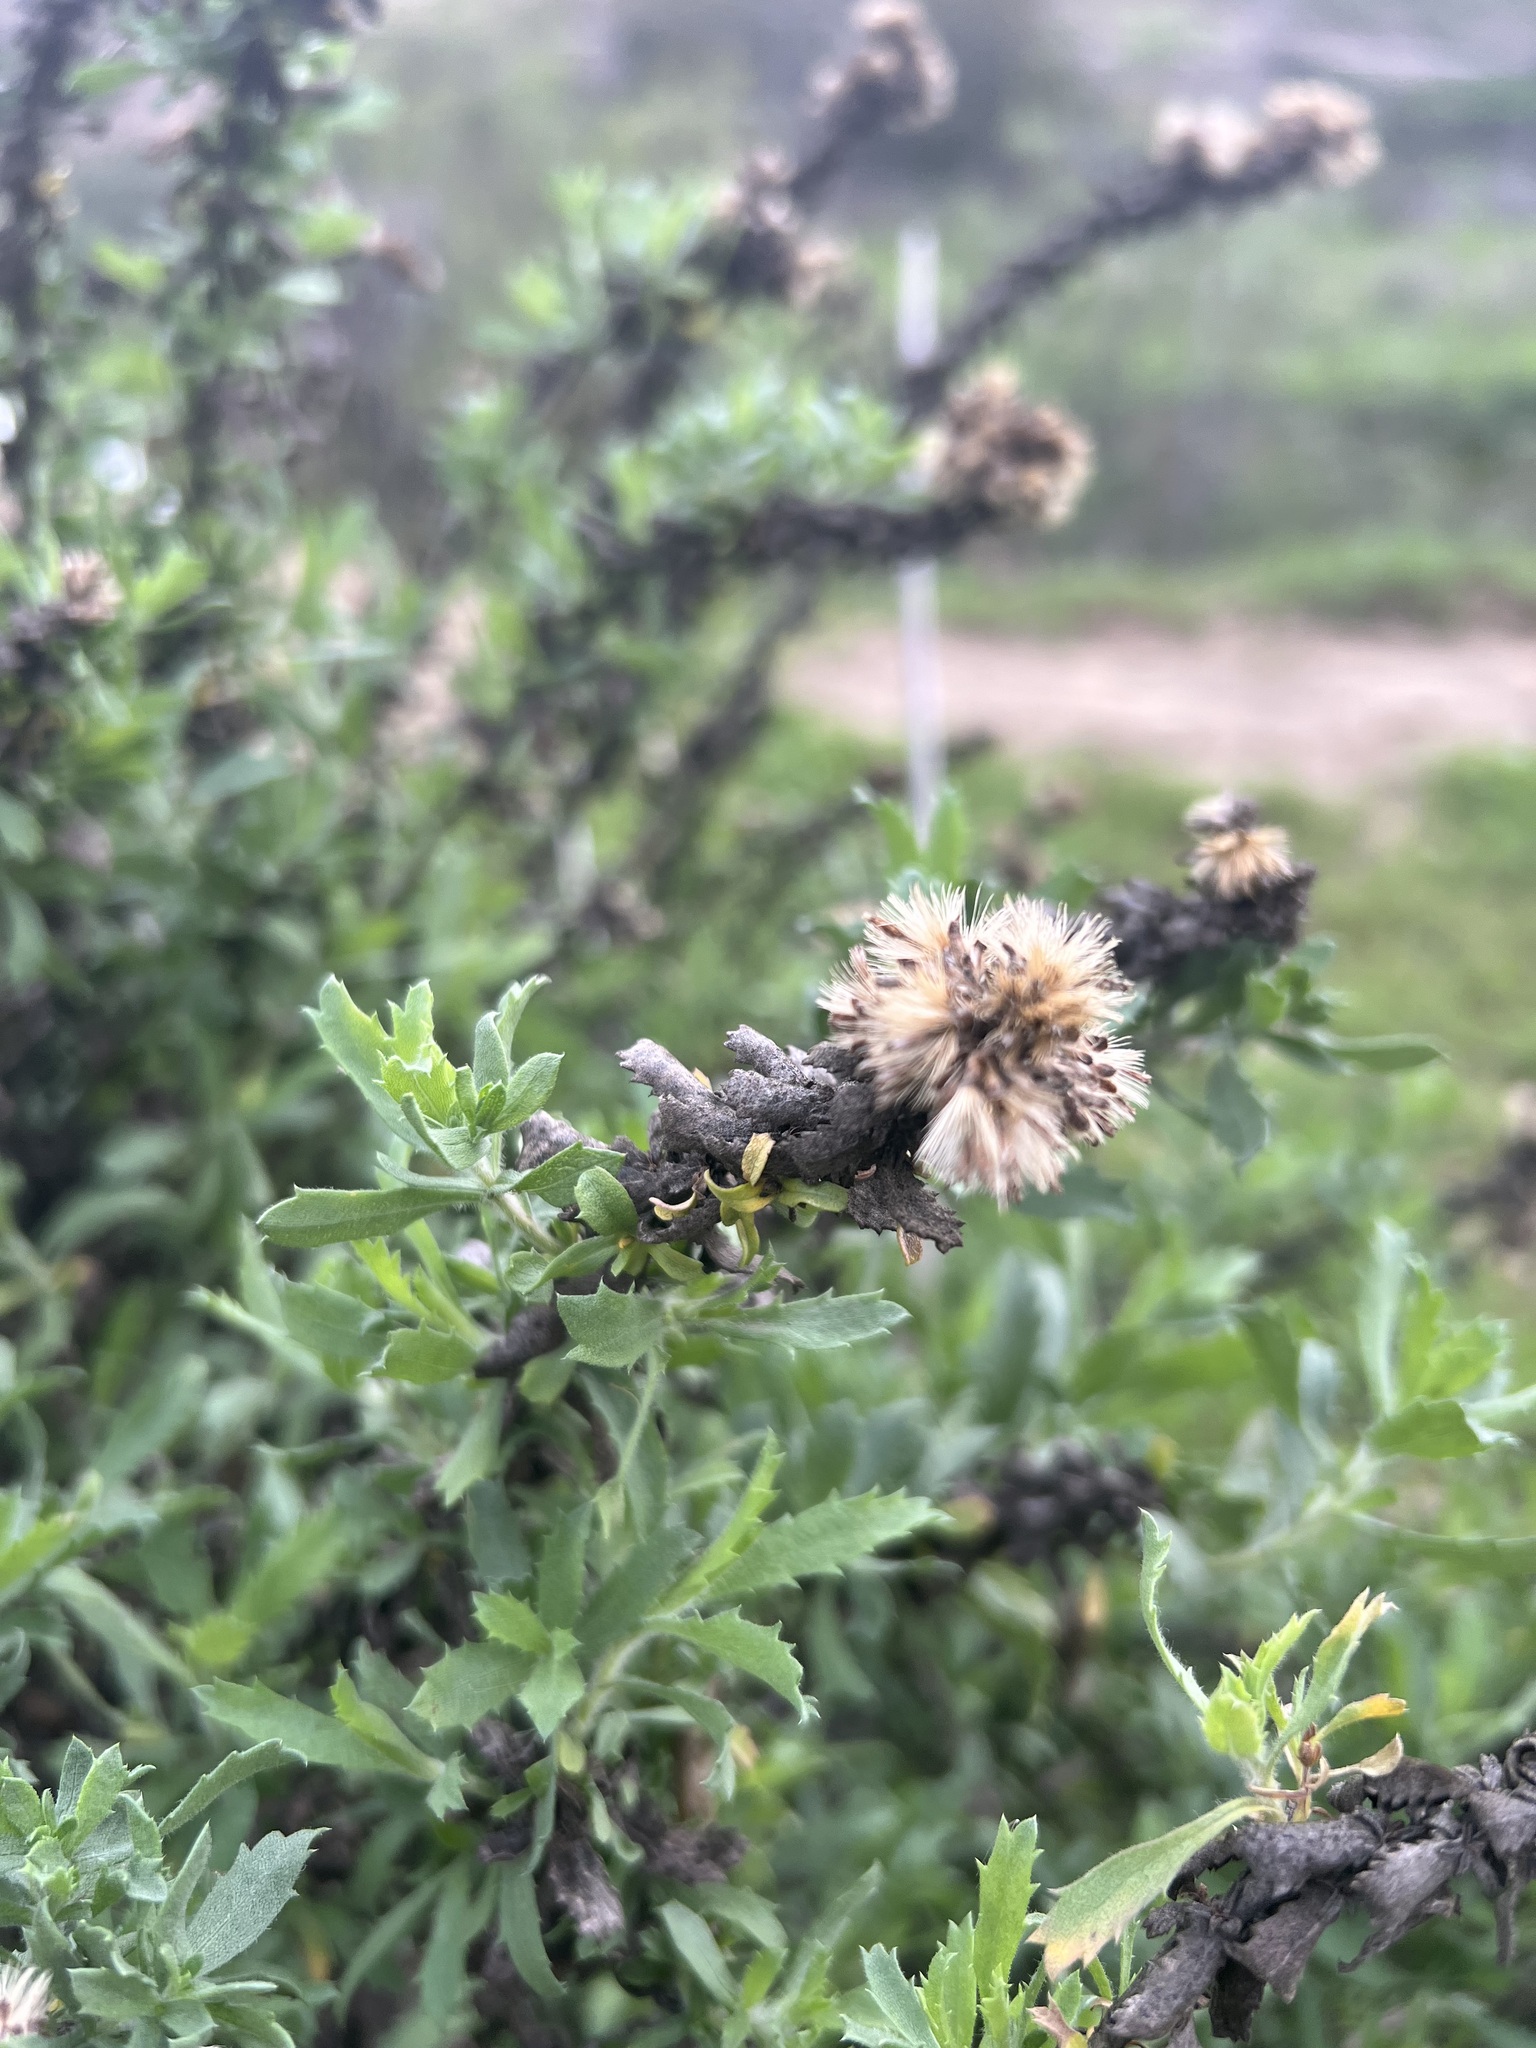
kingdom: Plantae
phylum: Tracheophyta
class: Magnoliopsida
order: Asterales
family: Asteraceae
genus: Isocoma
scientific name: Isocoma menziesii
